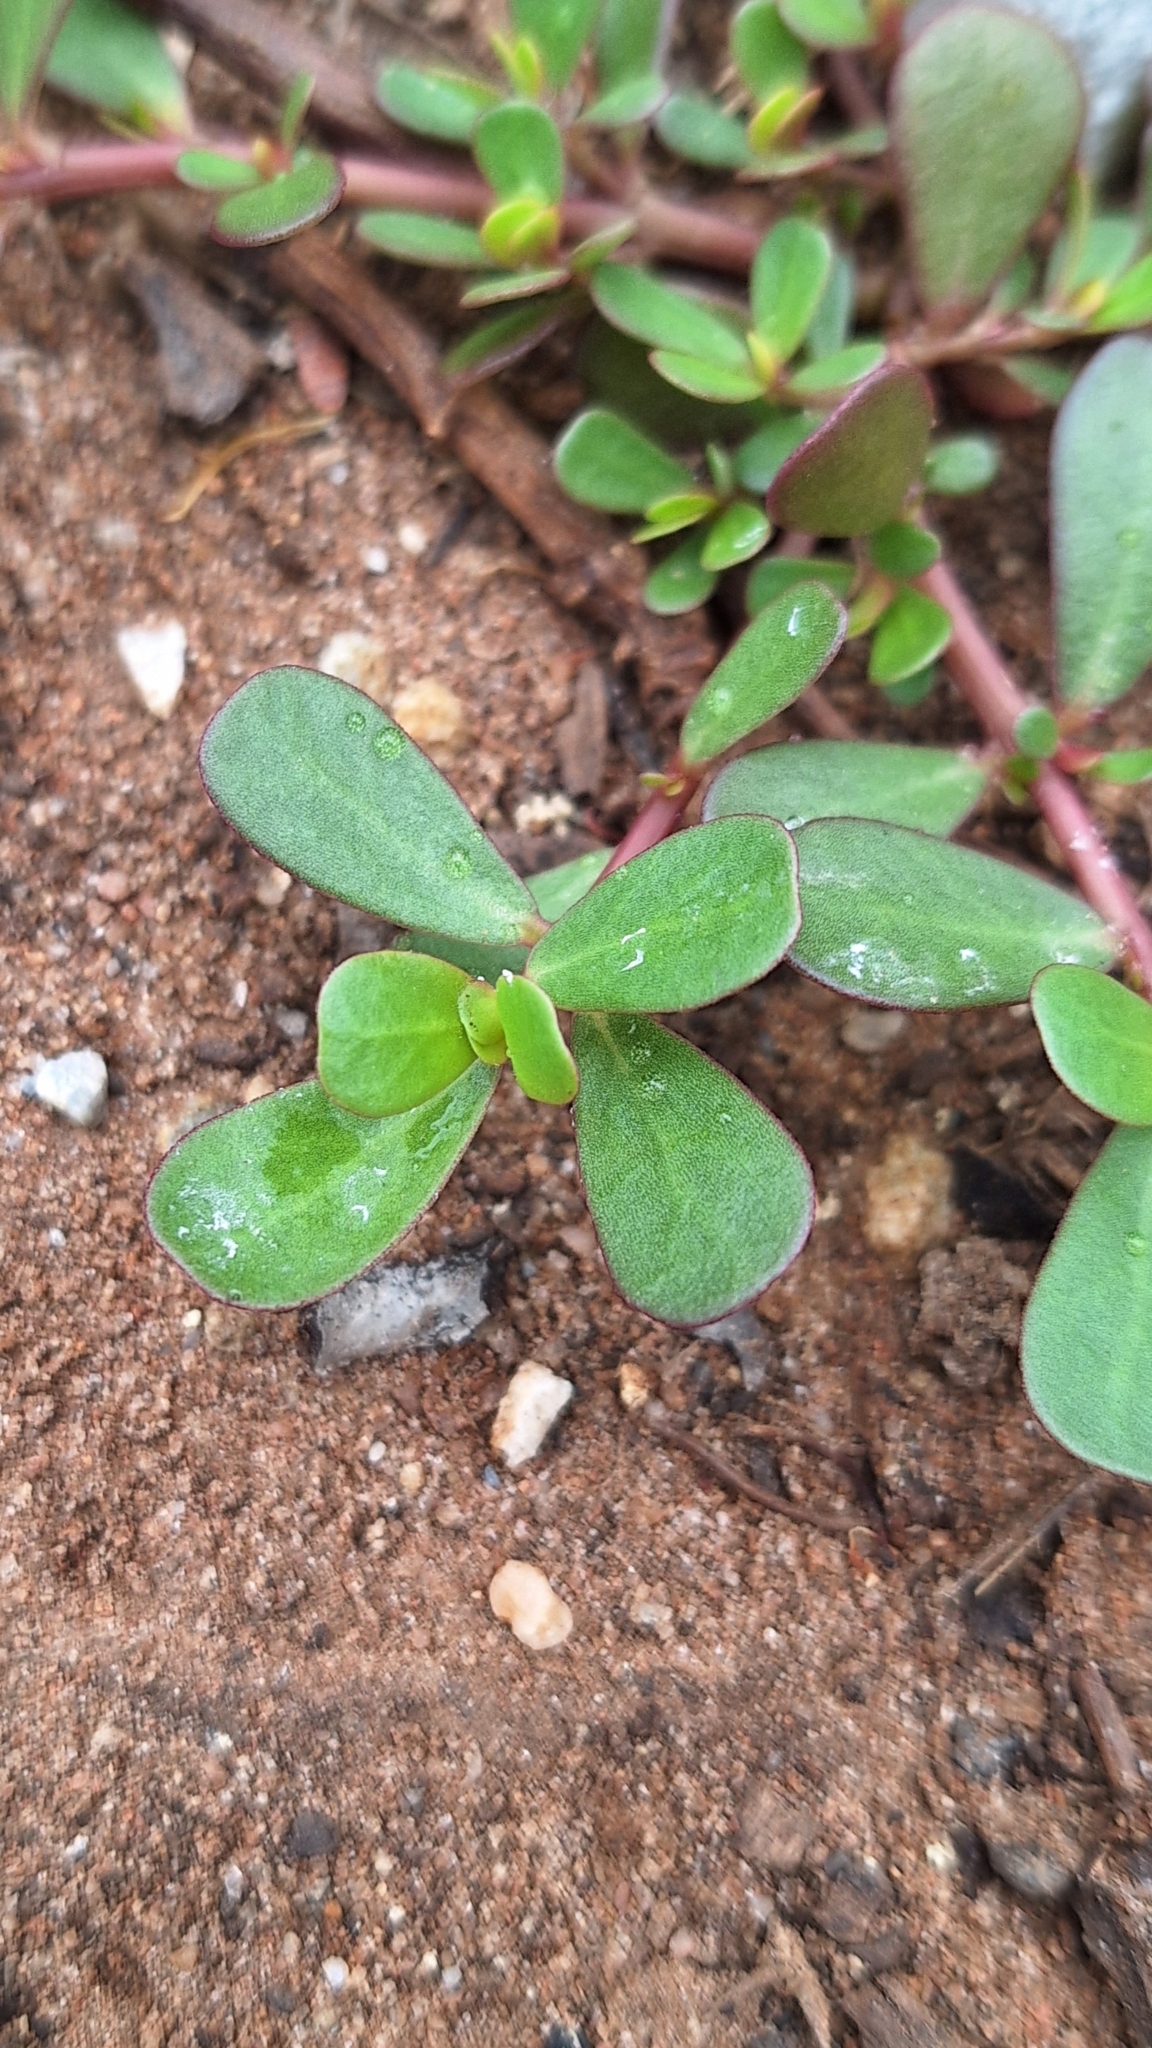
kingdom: Plantae
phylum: Tracheophyta
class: Magnoliopsida
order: Caryophyllales
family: Portulacaceae
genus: Portulaca
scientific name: Portulaca oleracea
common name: Common purslane
